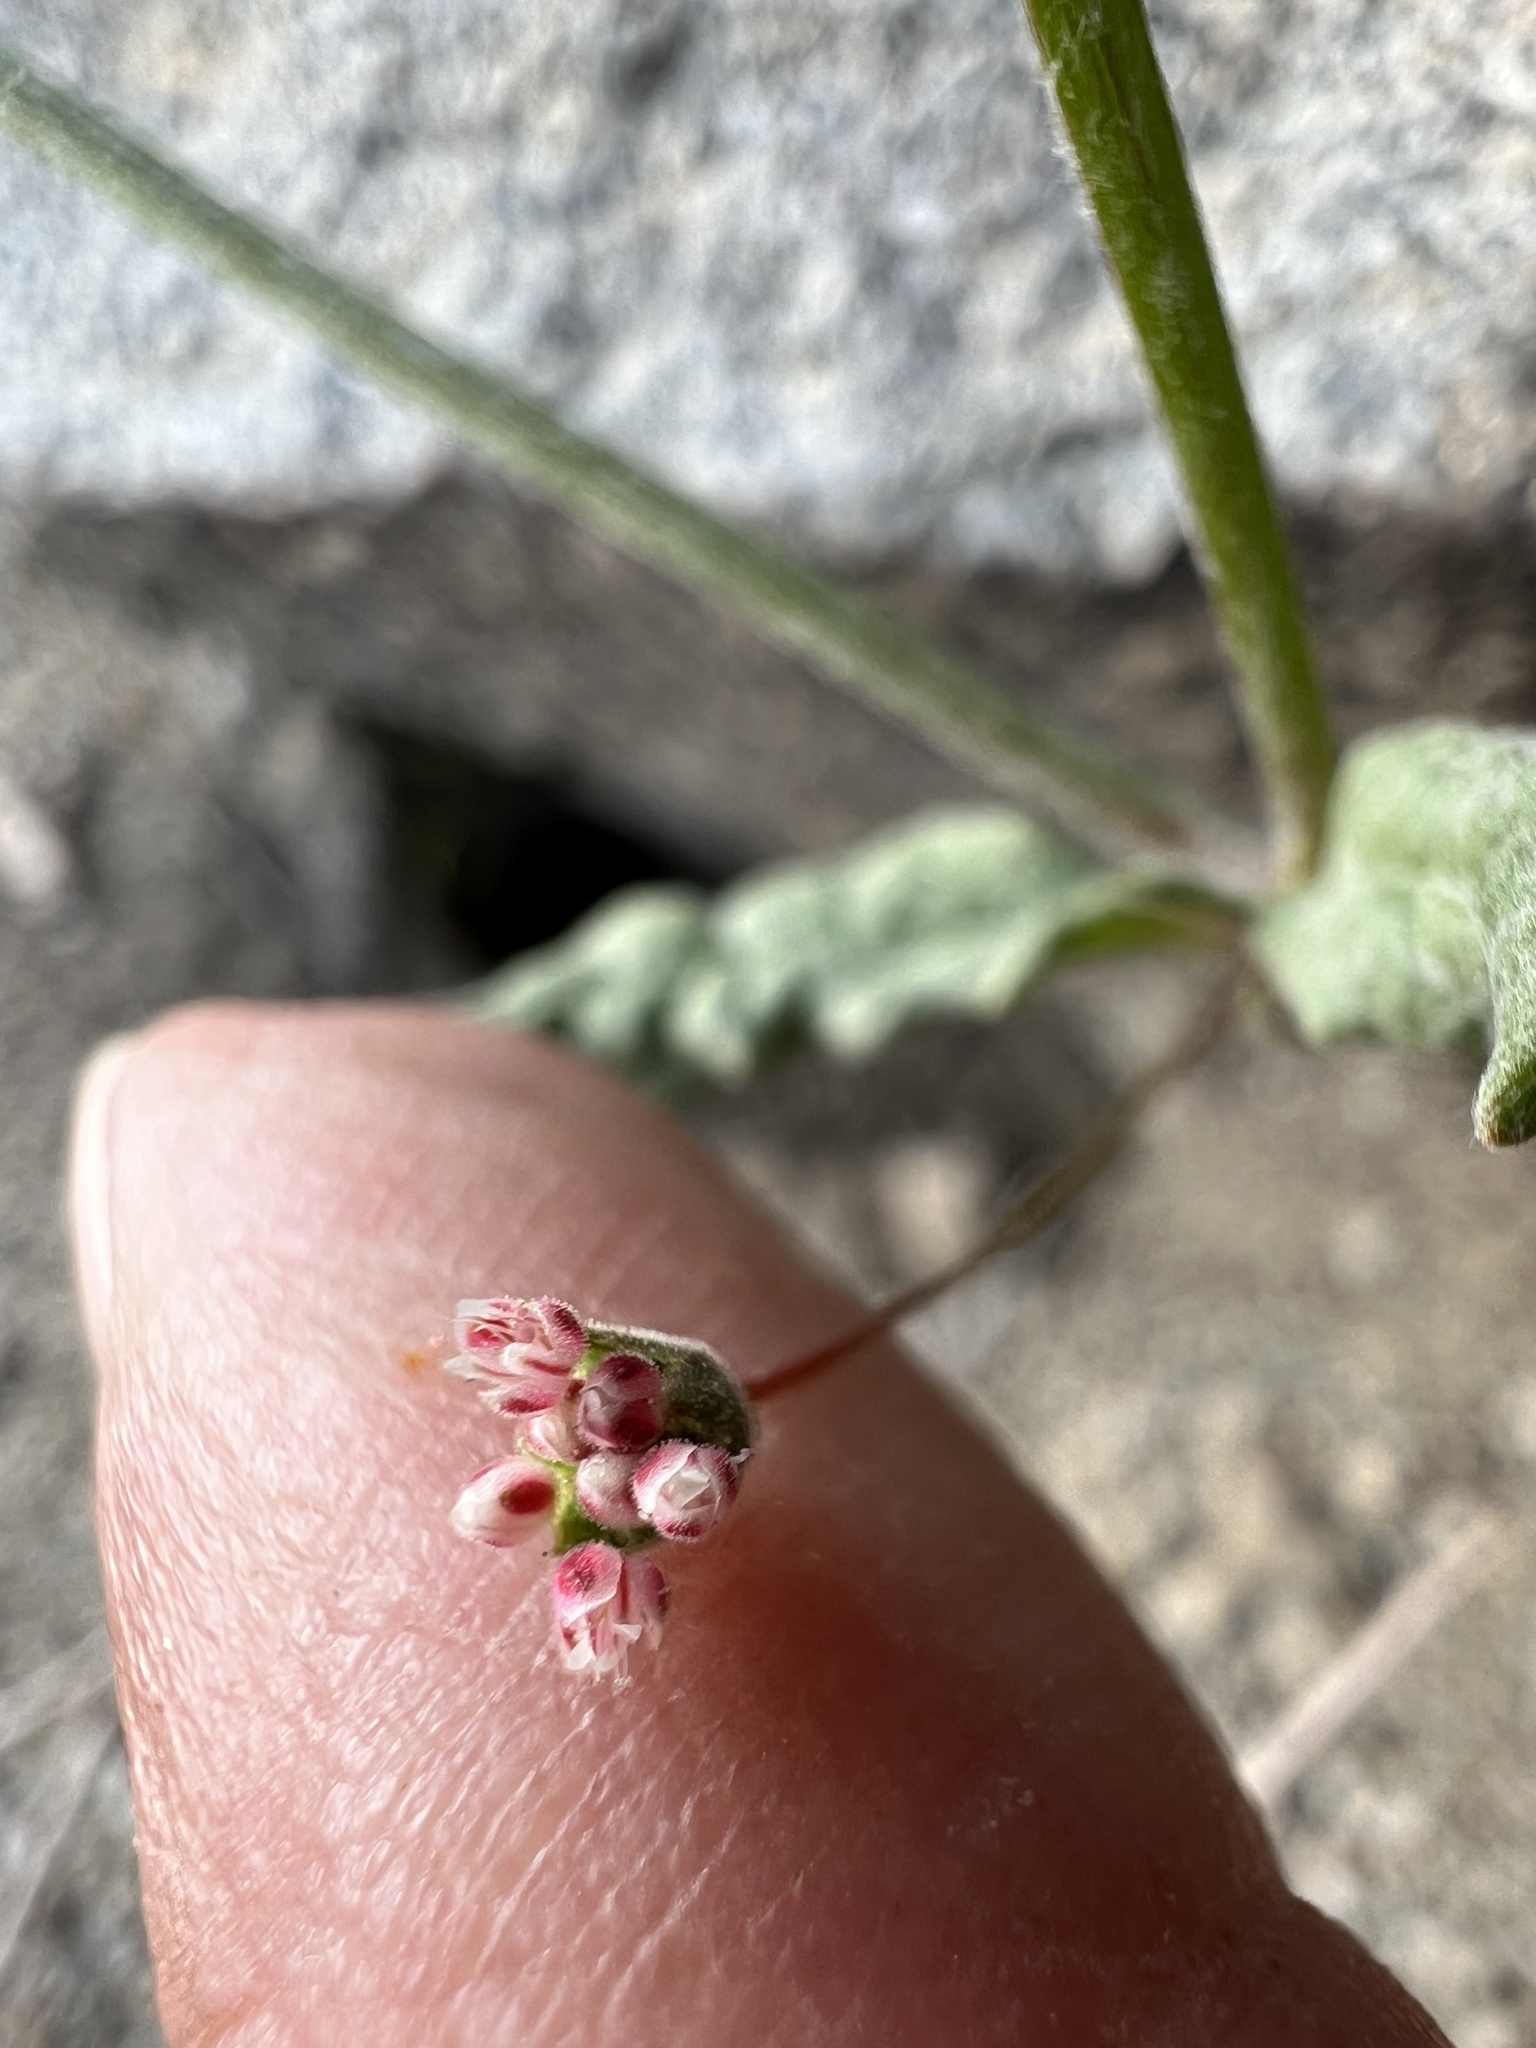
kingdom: Plantae
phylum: Tracheophyta
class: Magnoliopsida
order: Caryophyllales
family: Polygonaceae
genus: Eriogonum
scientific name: Eriogonum maculatum
